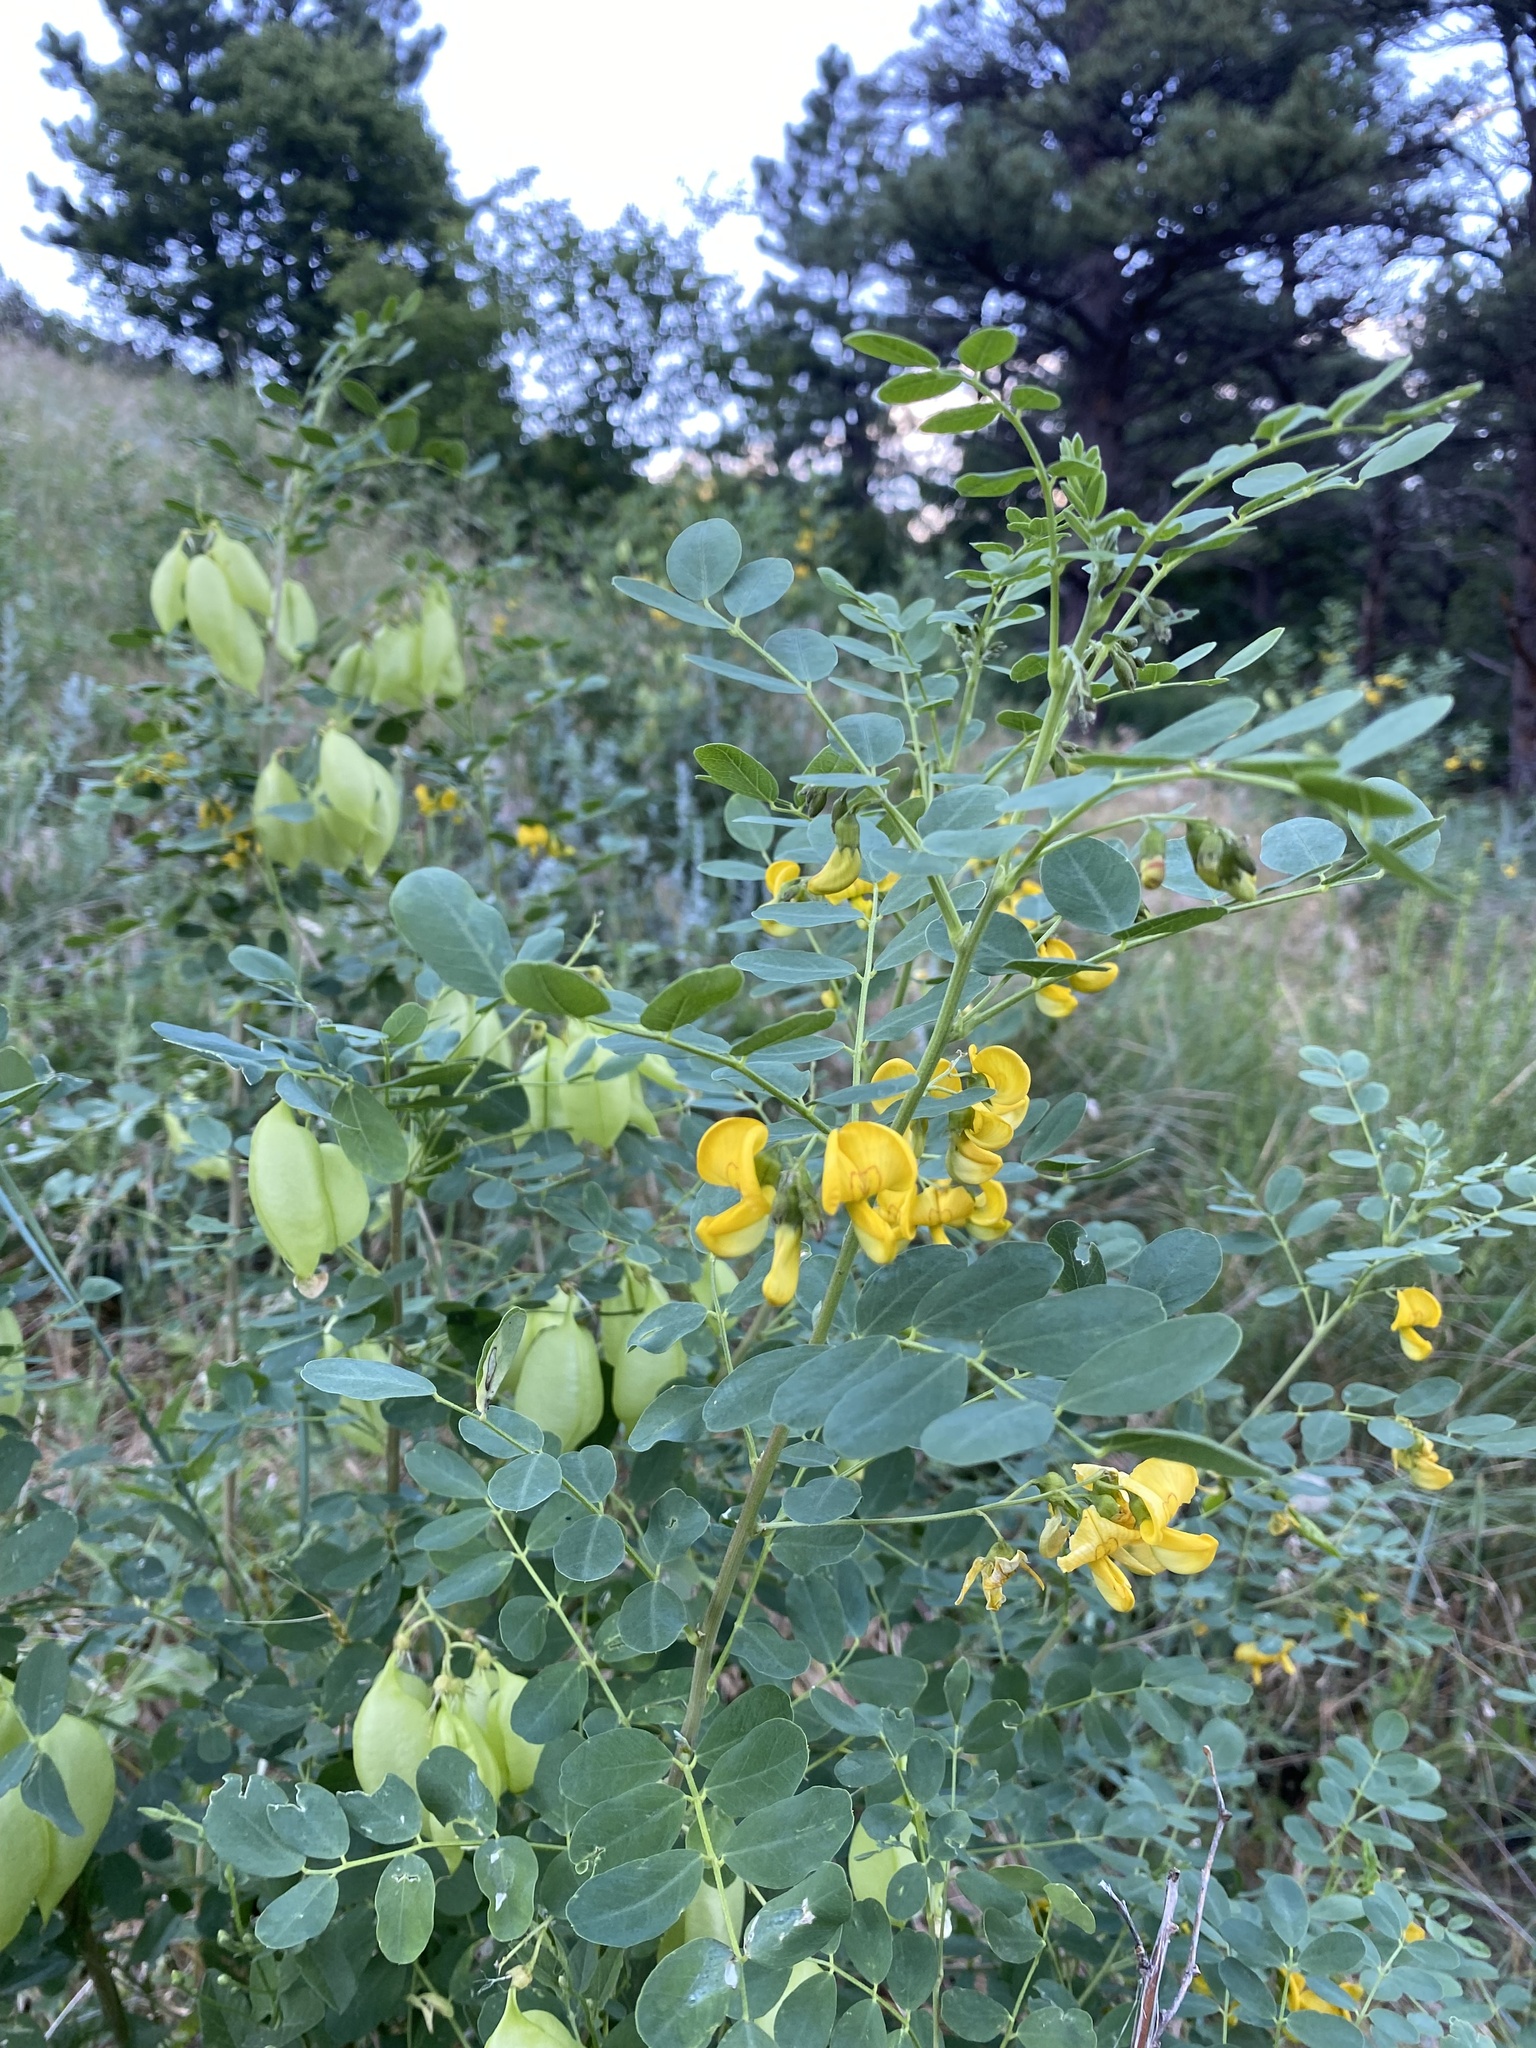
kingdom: Plantae
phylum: Tracheophyta
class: Magnoliopsida
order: Fabales
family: Fabaceae
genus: Colutea
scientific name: Colutea arborescens
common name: Bladder-senna
